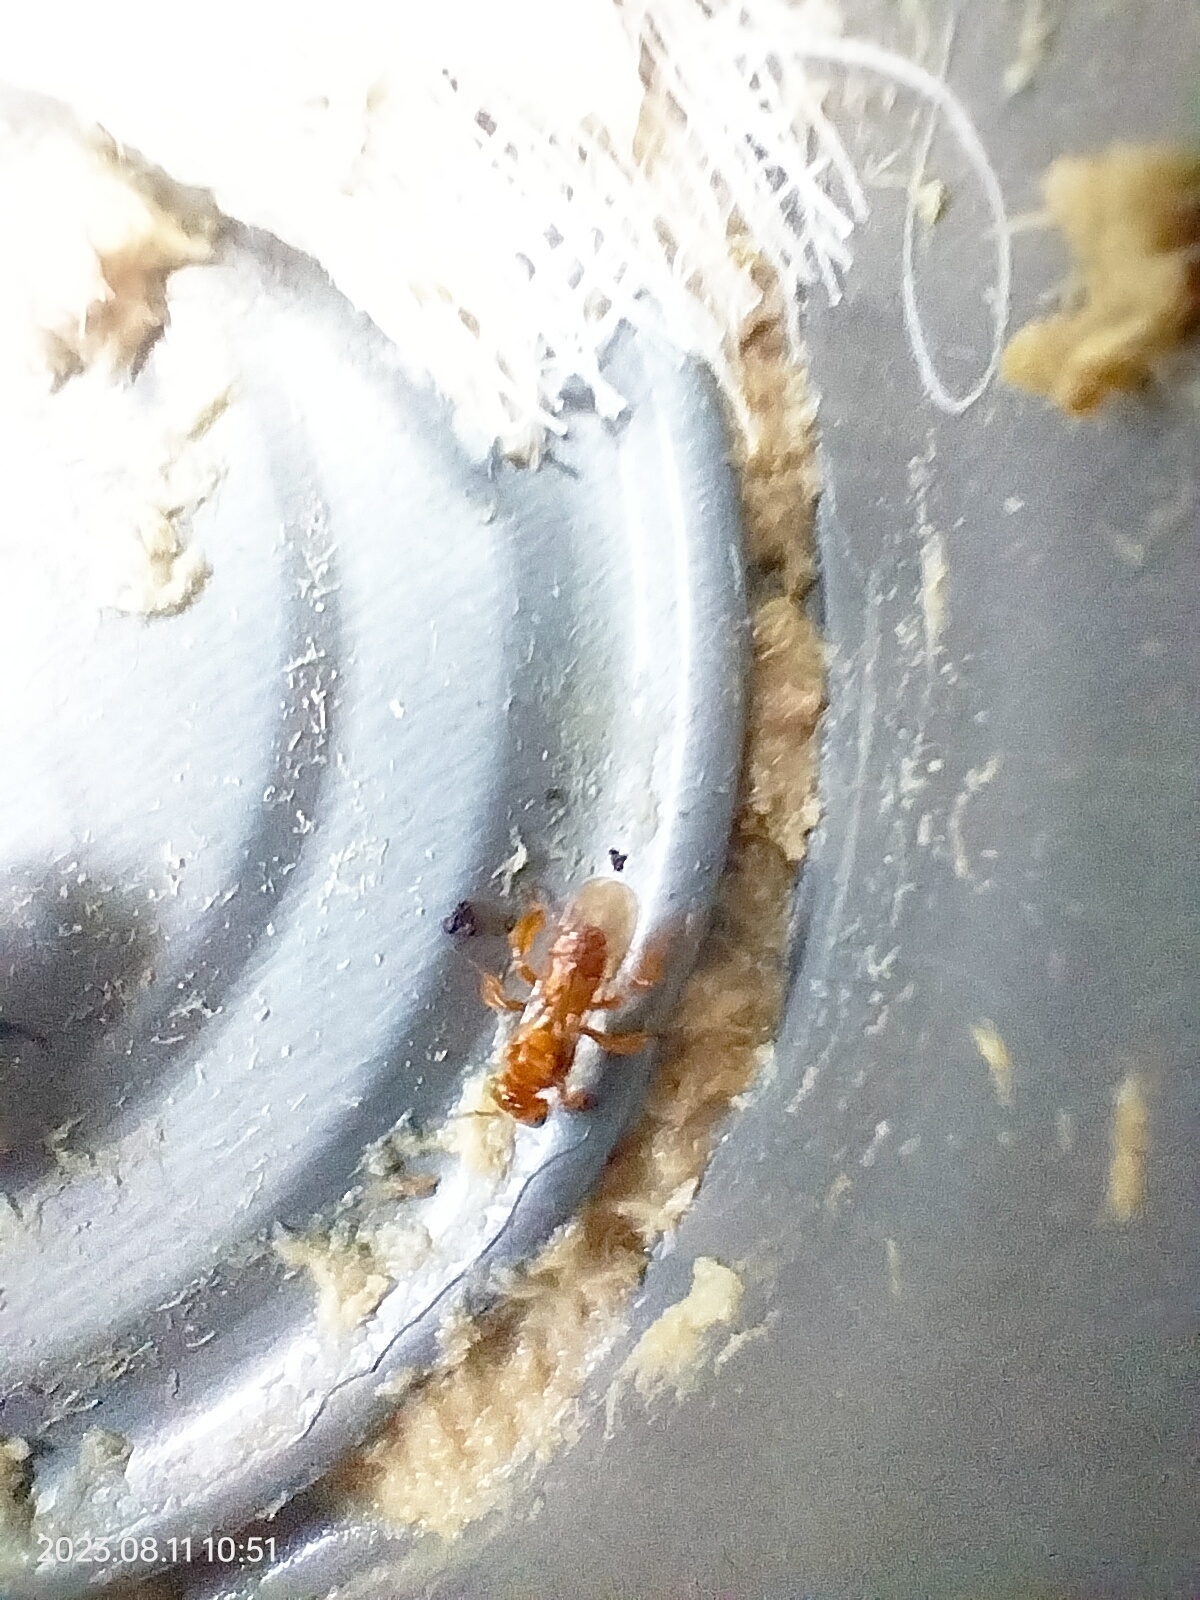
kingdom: Animalia
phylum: Arthropoda
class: Insecta
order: Hymenoptera
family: Apidae
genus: Trigona
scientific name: Trigona pallens
